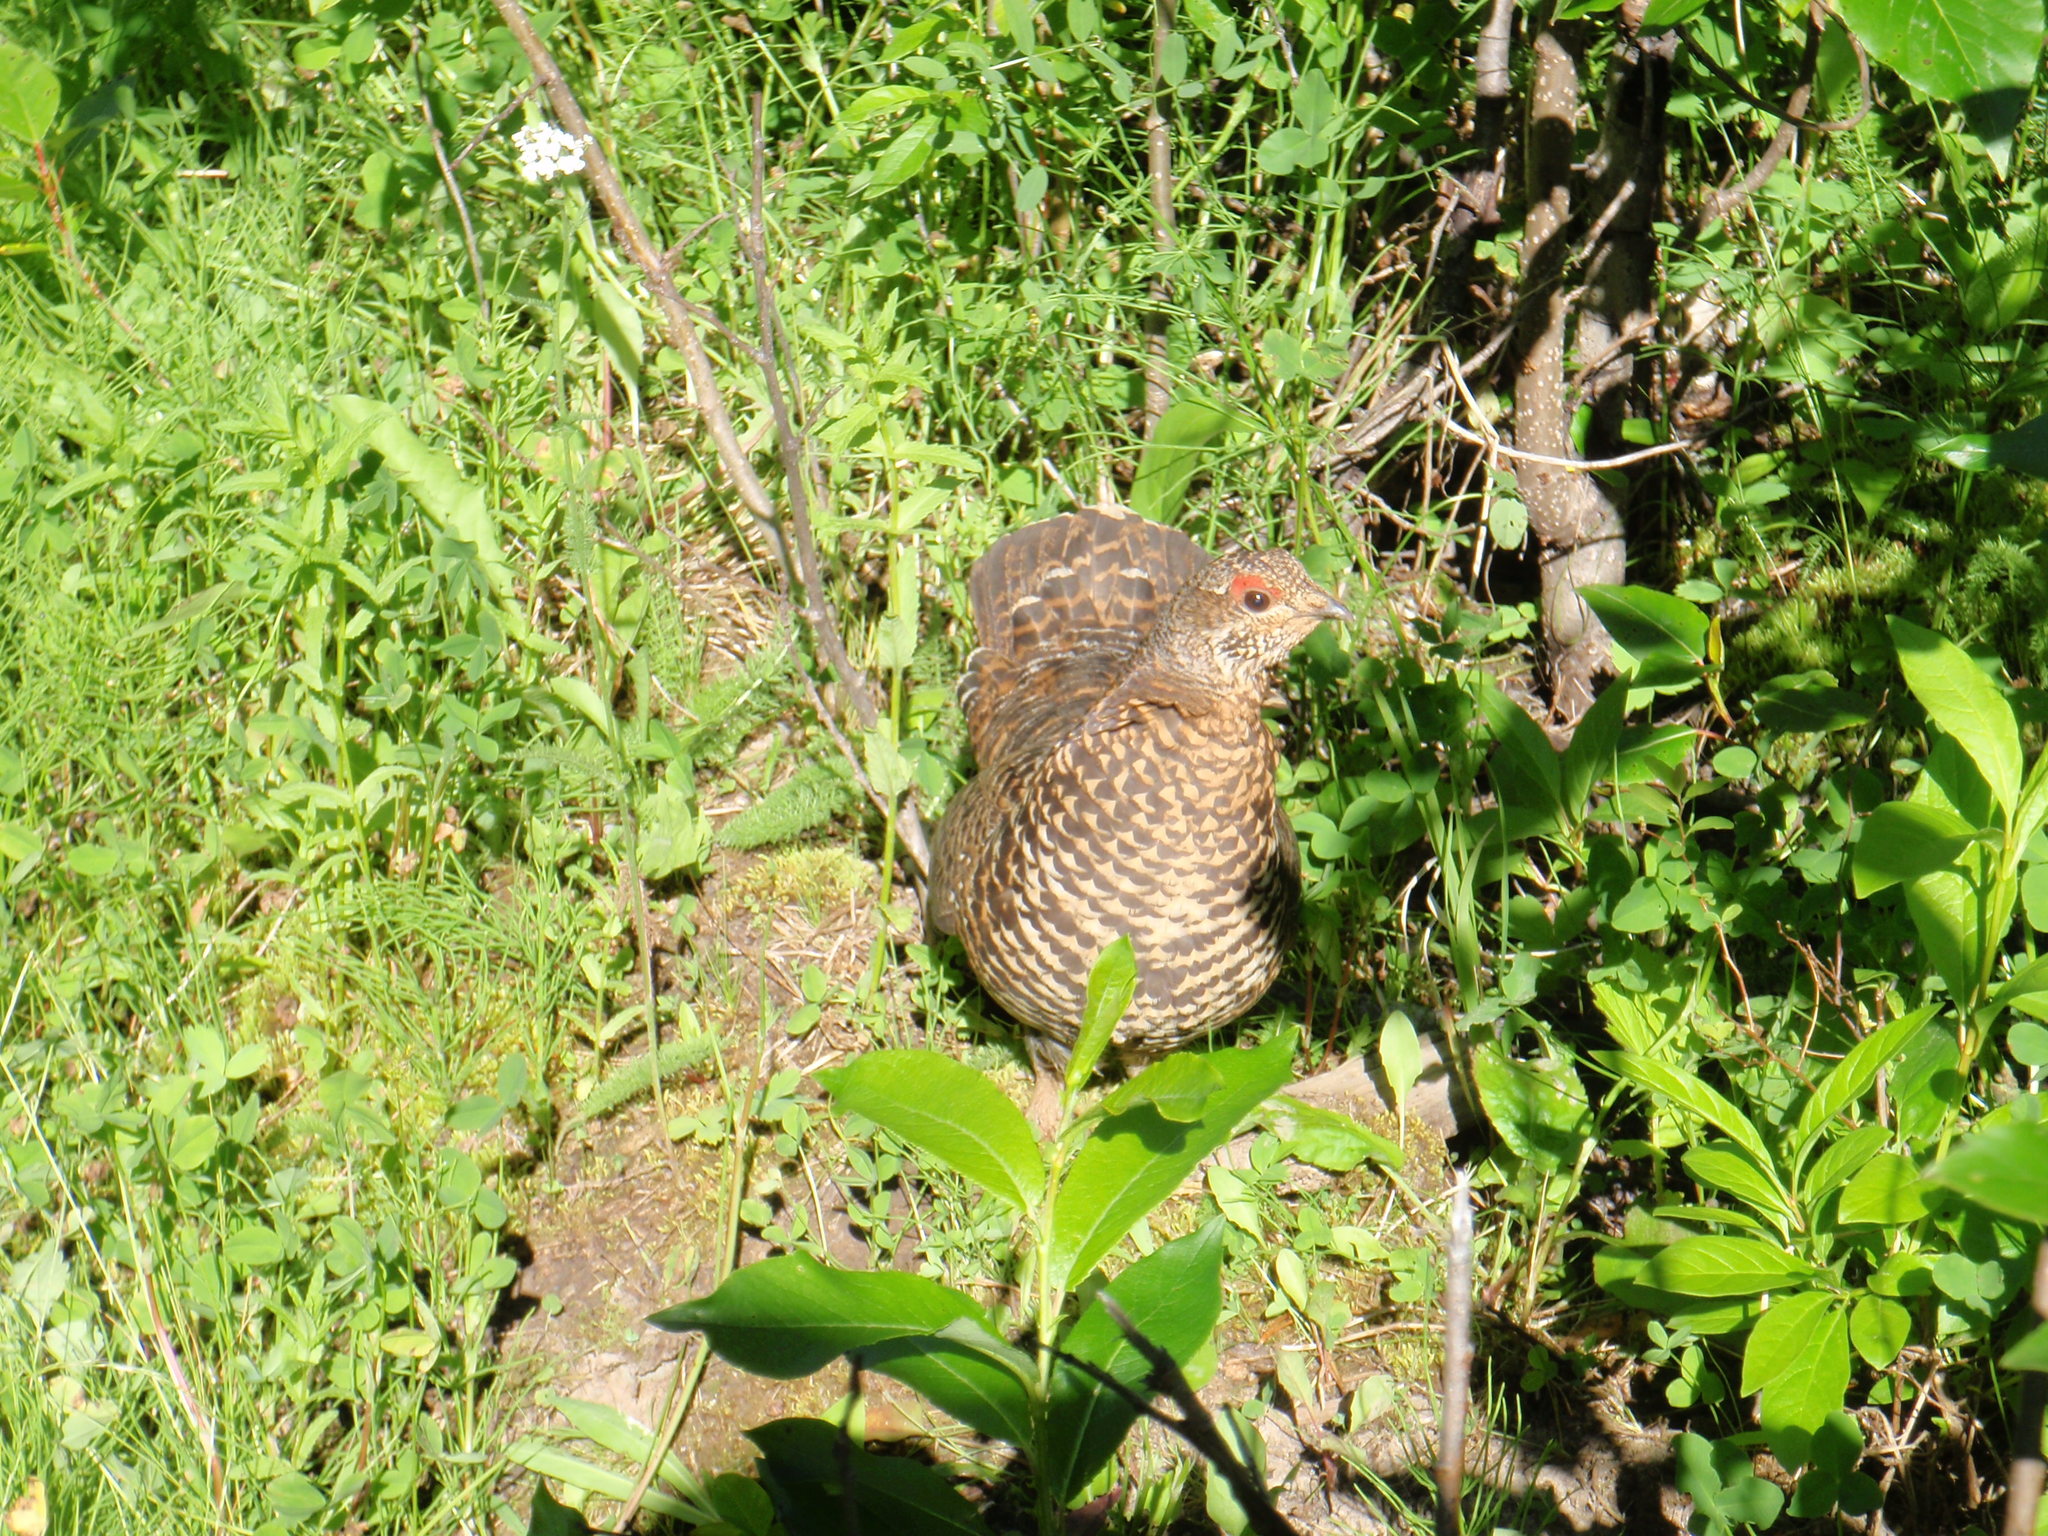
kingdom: Animalia
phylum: Chordata
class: Aves
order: Galliformes
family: Phasianidae
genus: Canachites
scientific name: Canachites canadensis
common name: Spruce grouse
